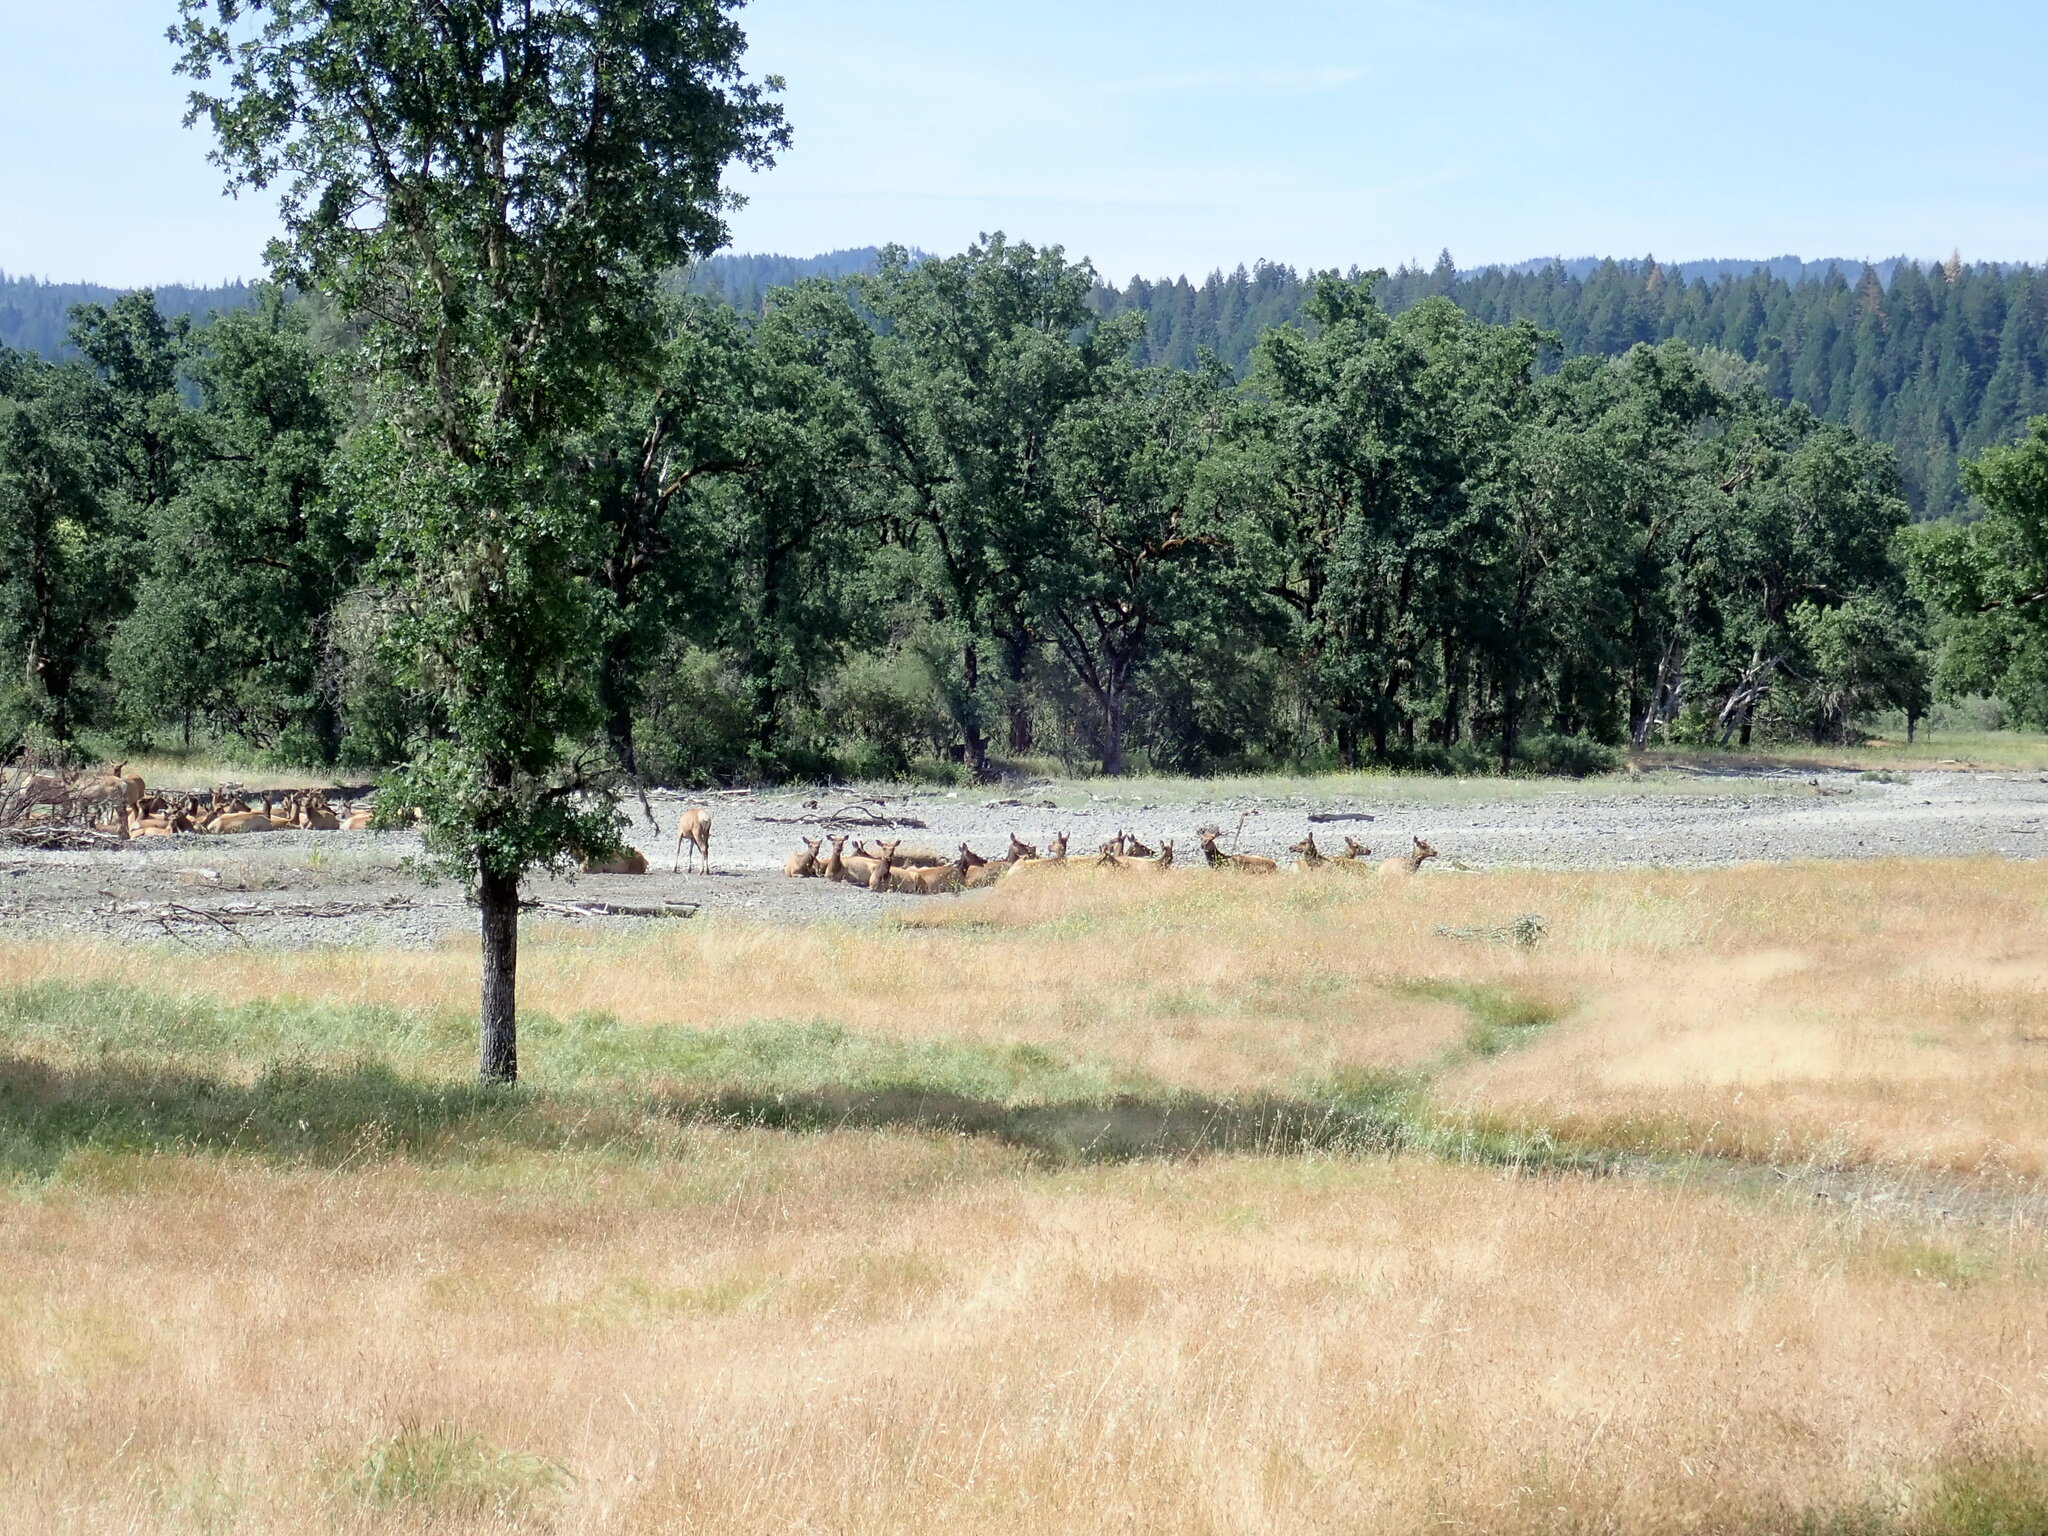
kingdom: Animalia
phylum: Chordata
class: Mammalia
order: Artiodactyla
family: Cervidae
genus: Cervus
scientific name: Cervus elaphus
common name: Red deer
